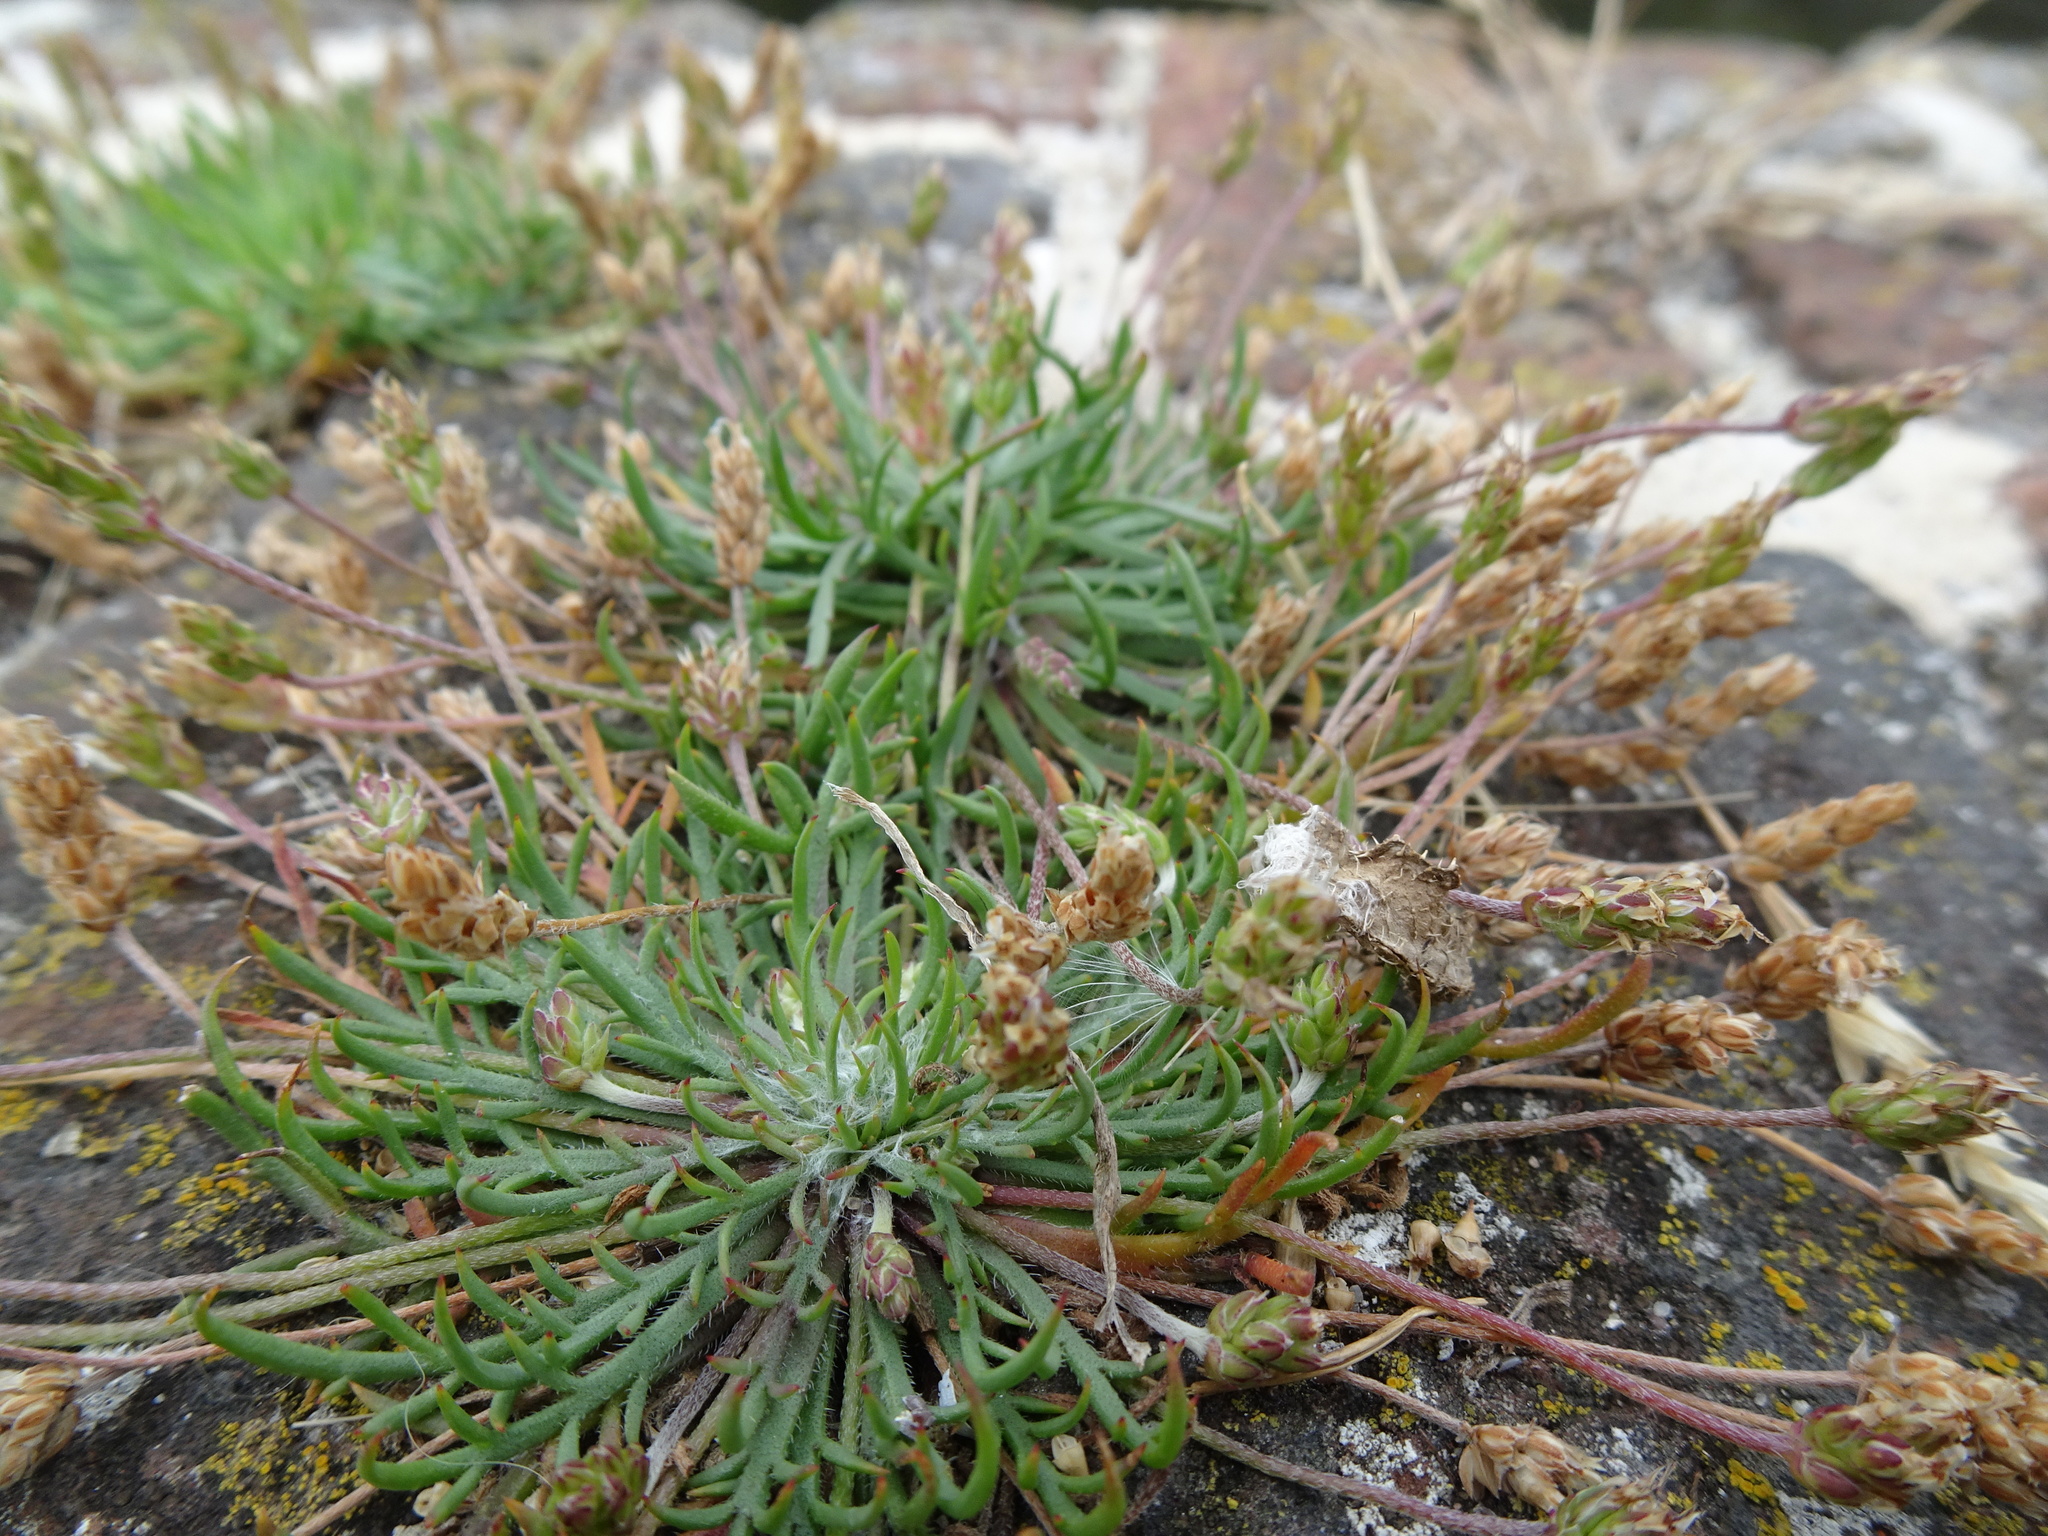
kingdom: Plantae
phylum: Tracheophyta
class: Magnoliopsida
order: Lamiales
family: Plantaginaceae
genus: Plantago
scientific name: Plantago coronopus
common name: Buck's-horn plantain
